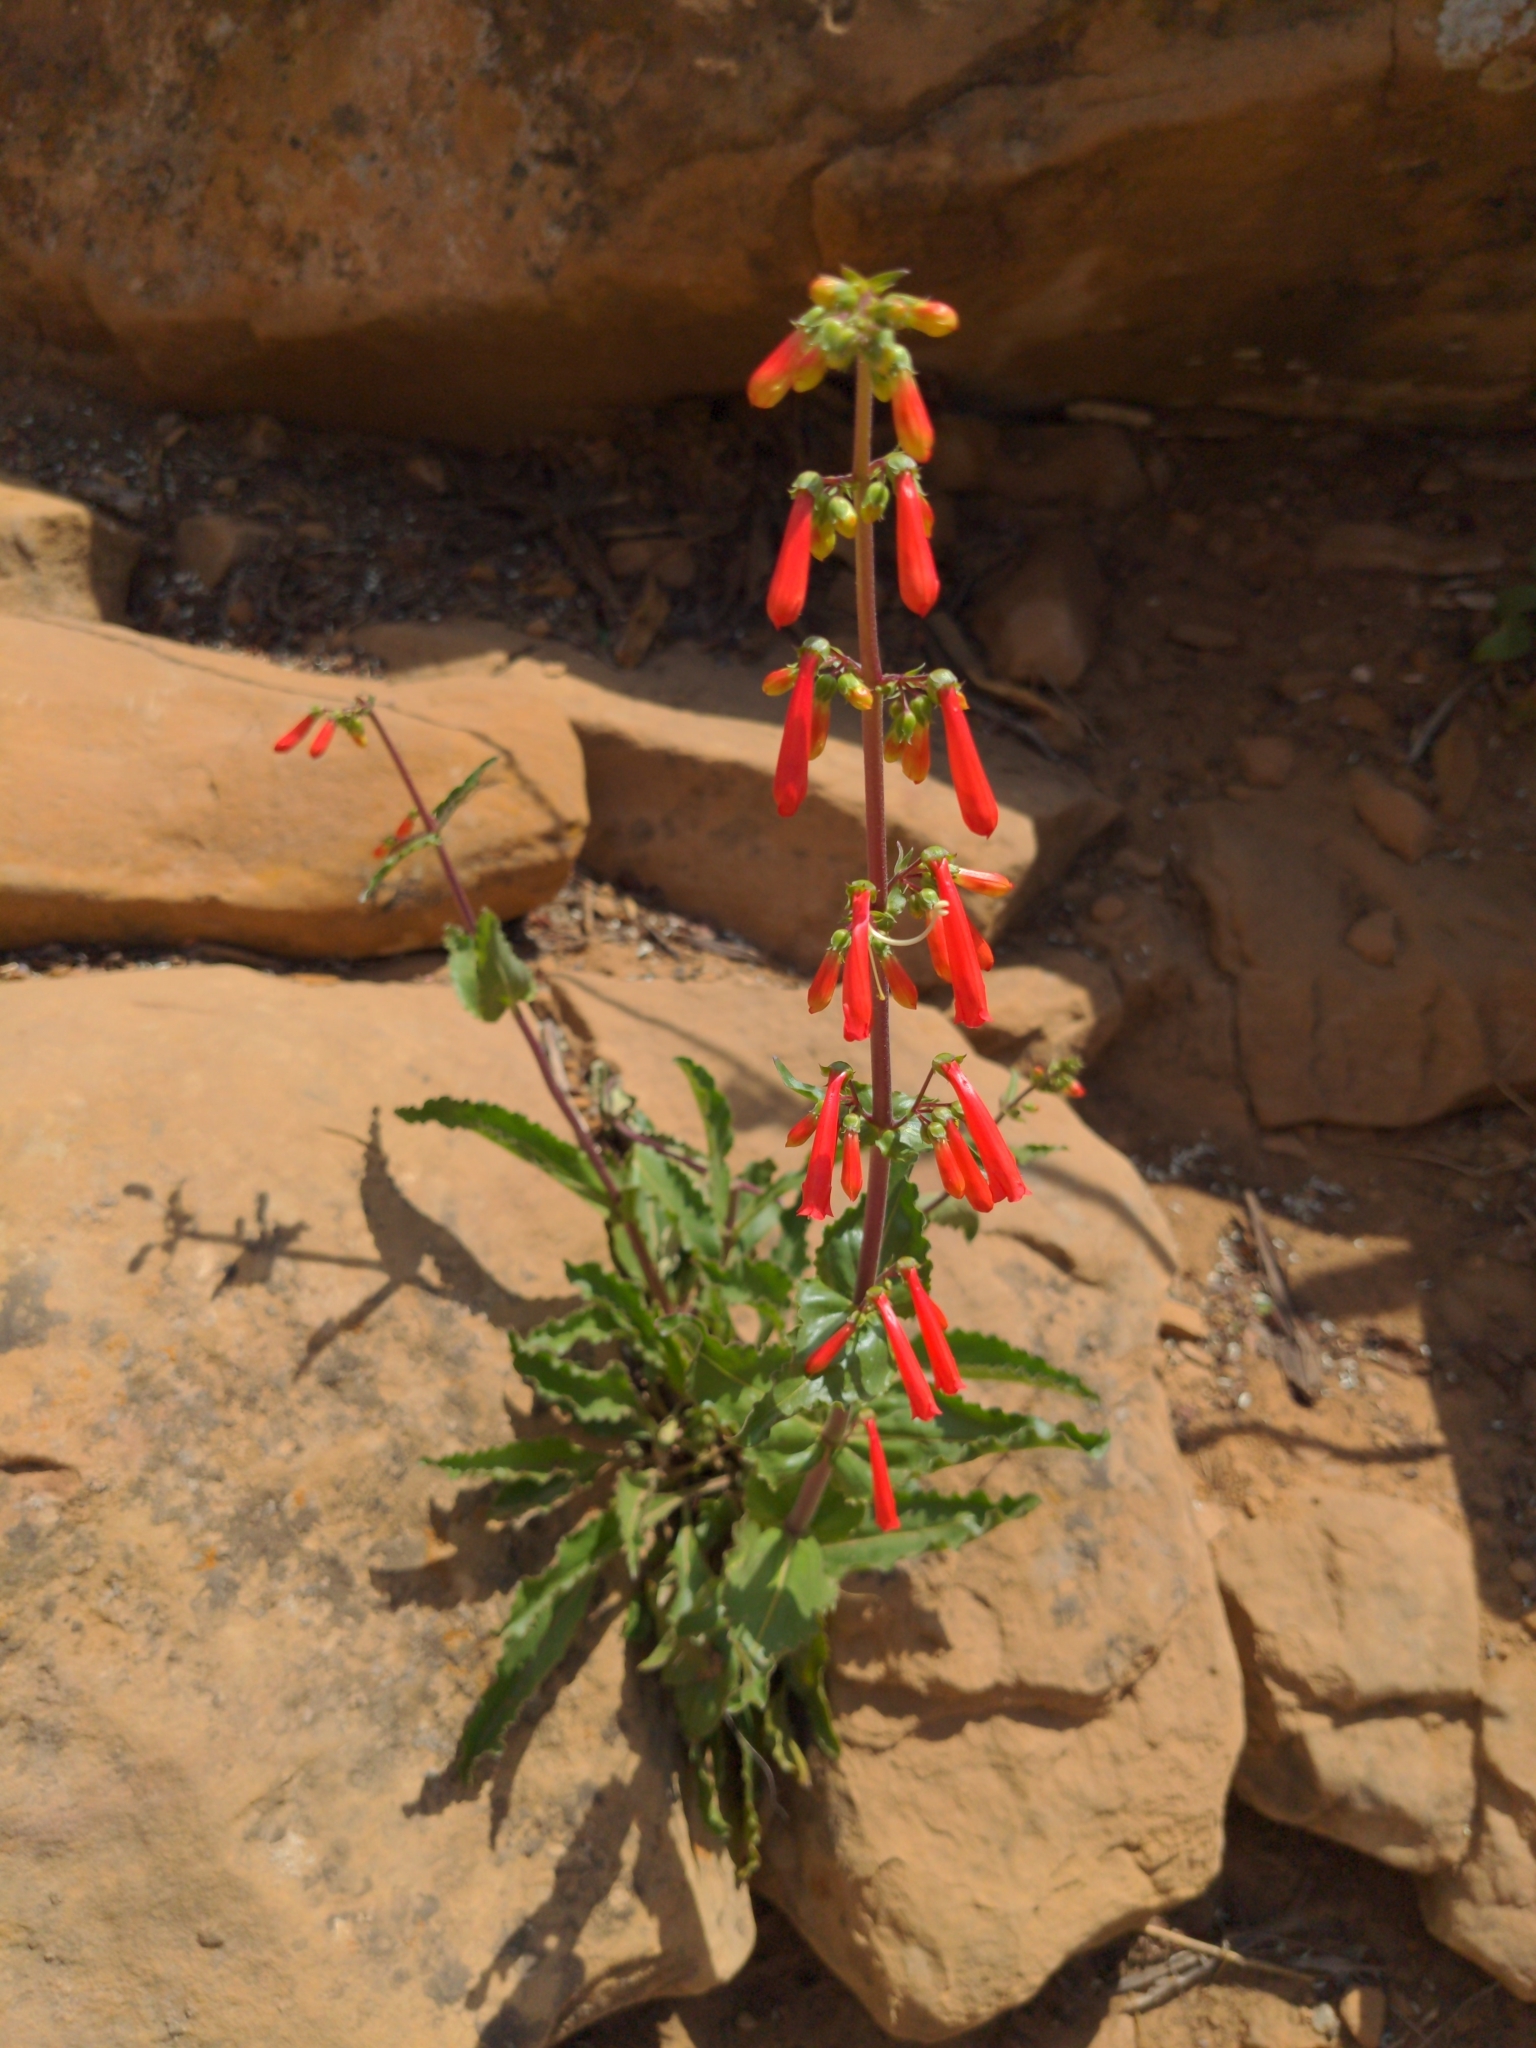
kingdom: Plantae
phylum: Tracheophyta
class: Magnoliopsida
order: Lamiales
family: Plantaginaceae
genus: Penstemon
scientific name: Penstemon eatonii
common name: Eaton's penstemon
